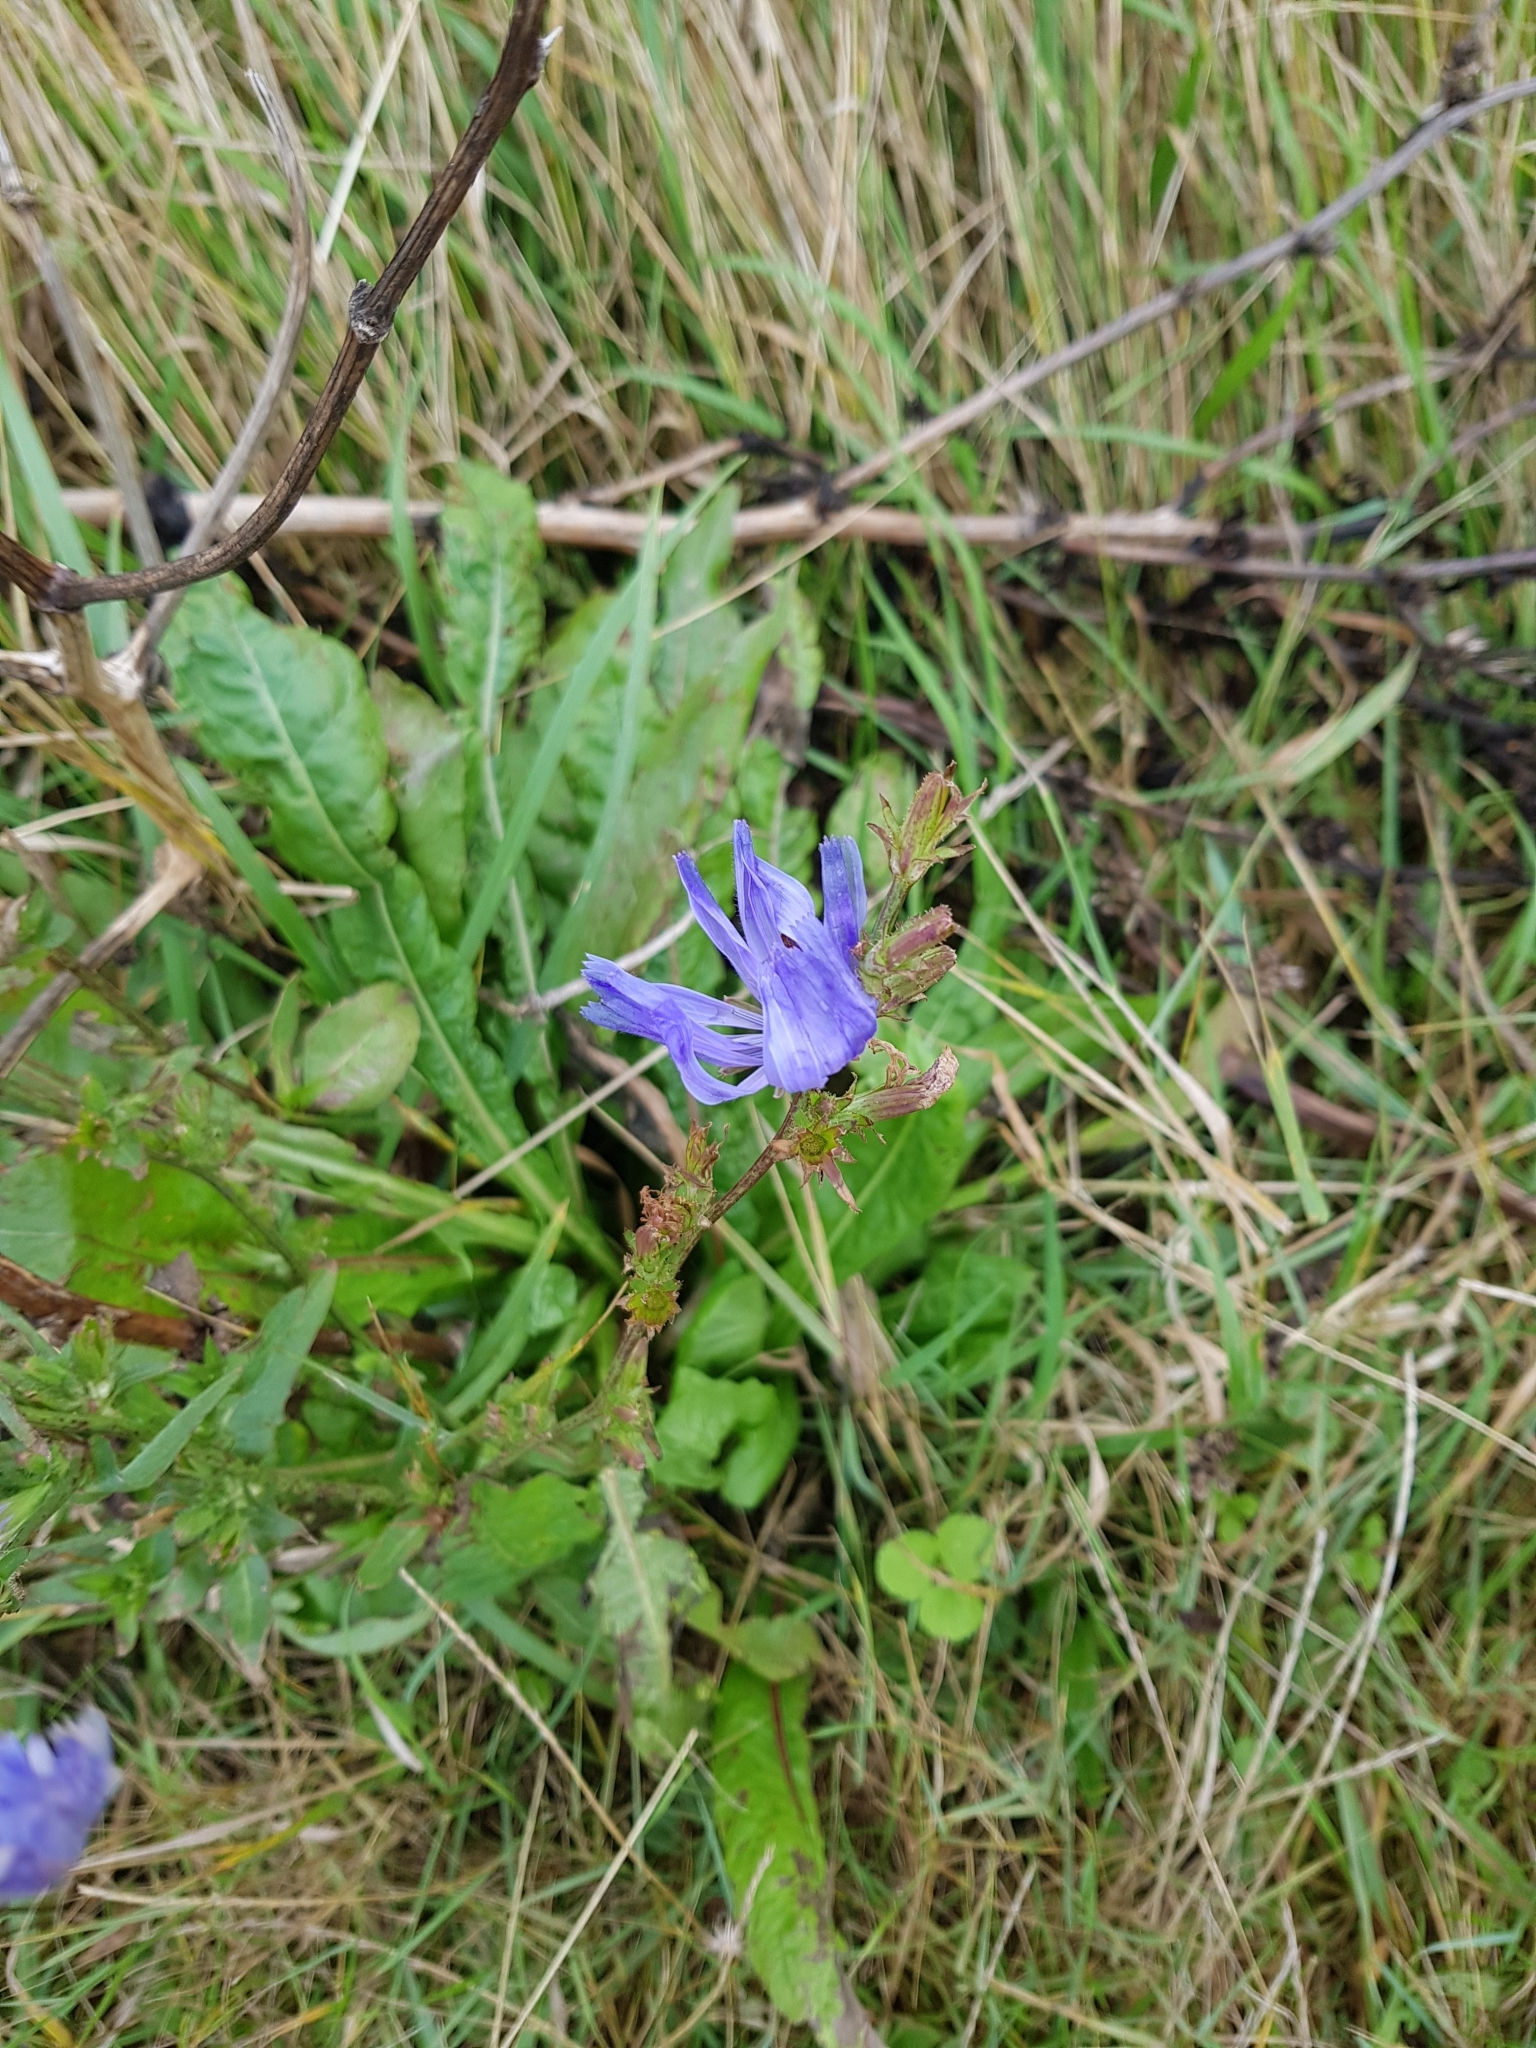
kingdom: Plantae
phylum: Tracheophyta
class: Magnoliopsida
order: Asterales
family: Asteraceae
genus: Cichorium
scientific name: Cichorium intybus
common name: Chicory
